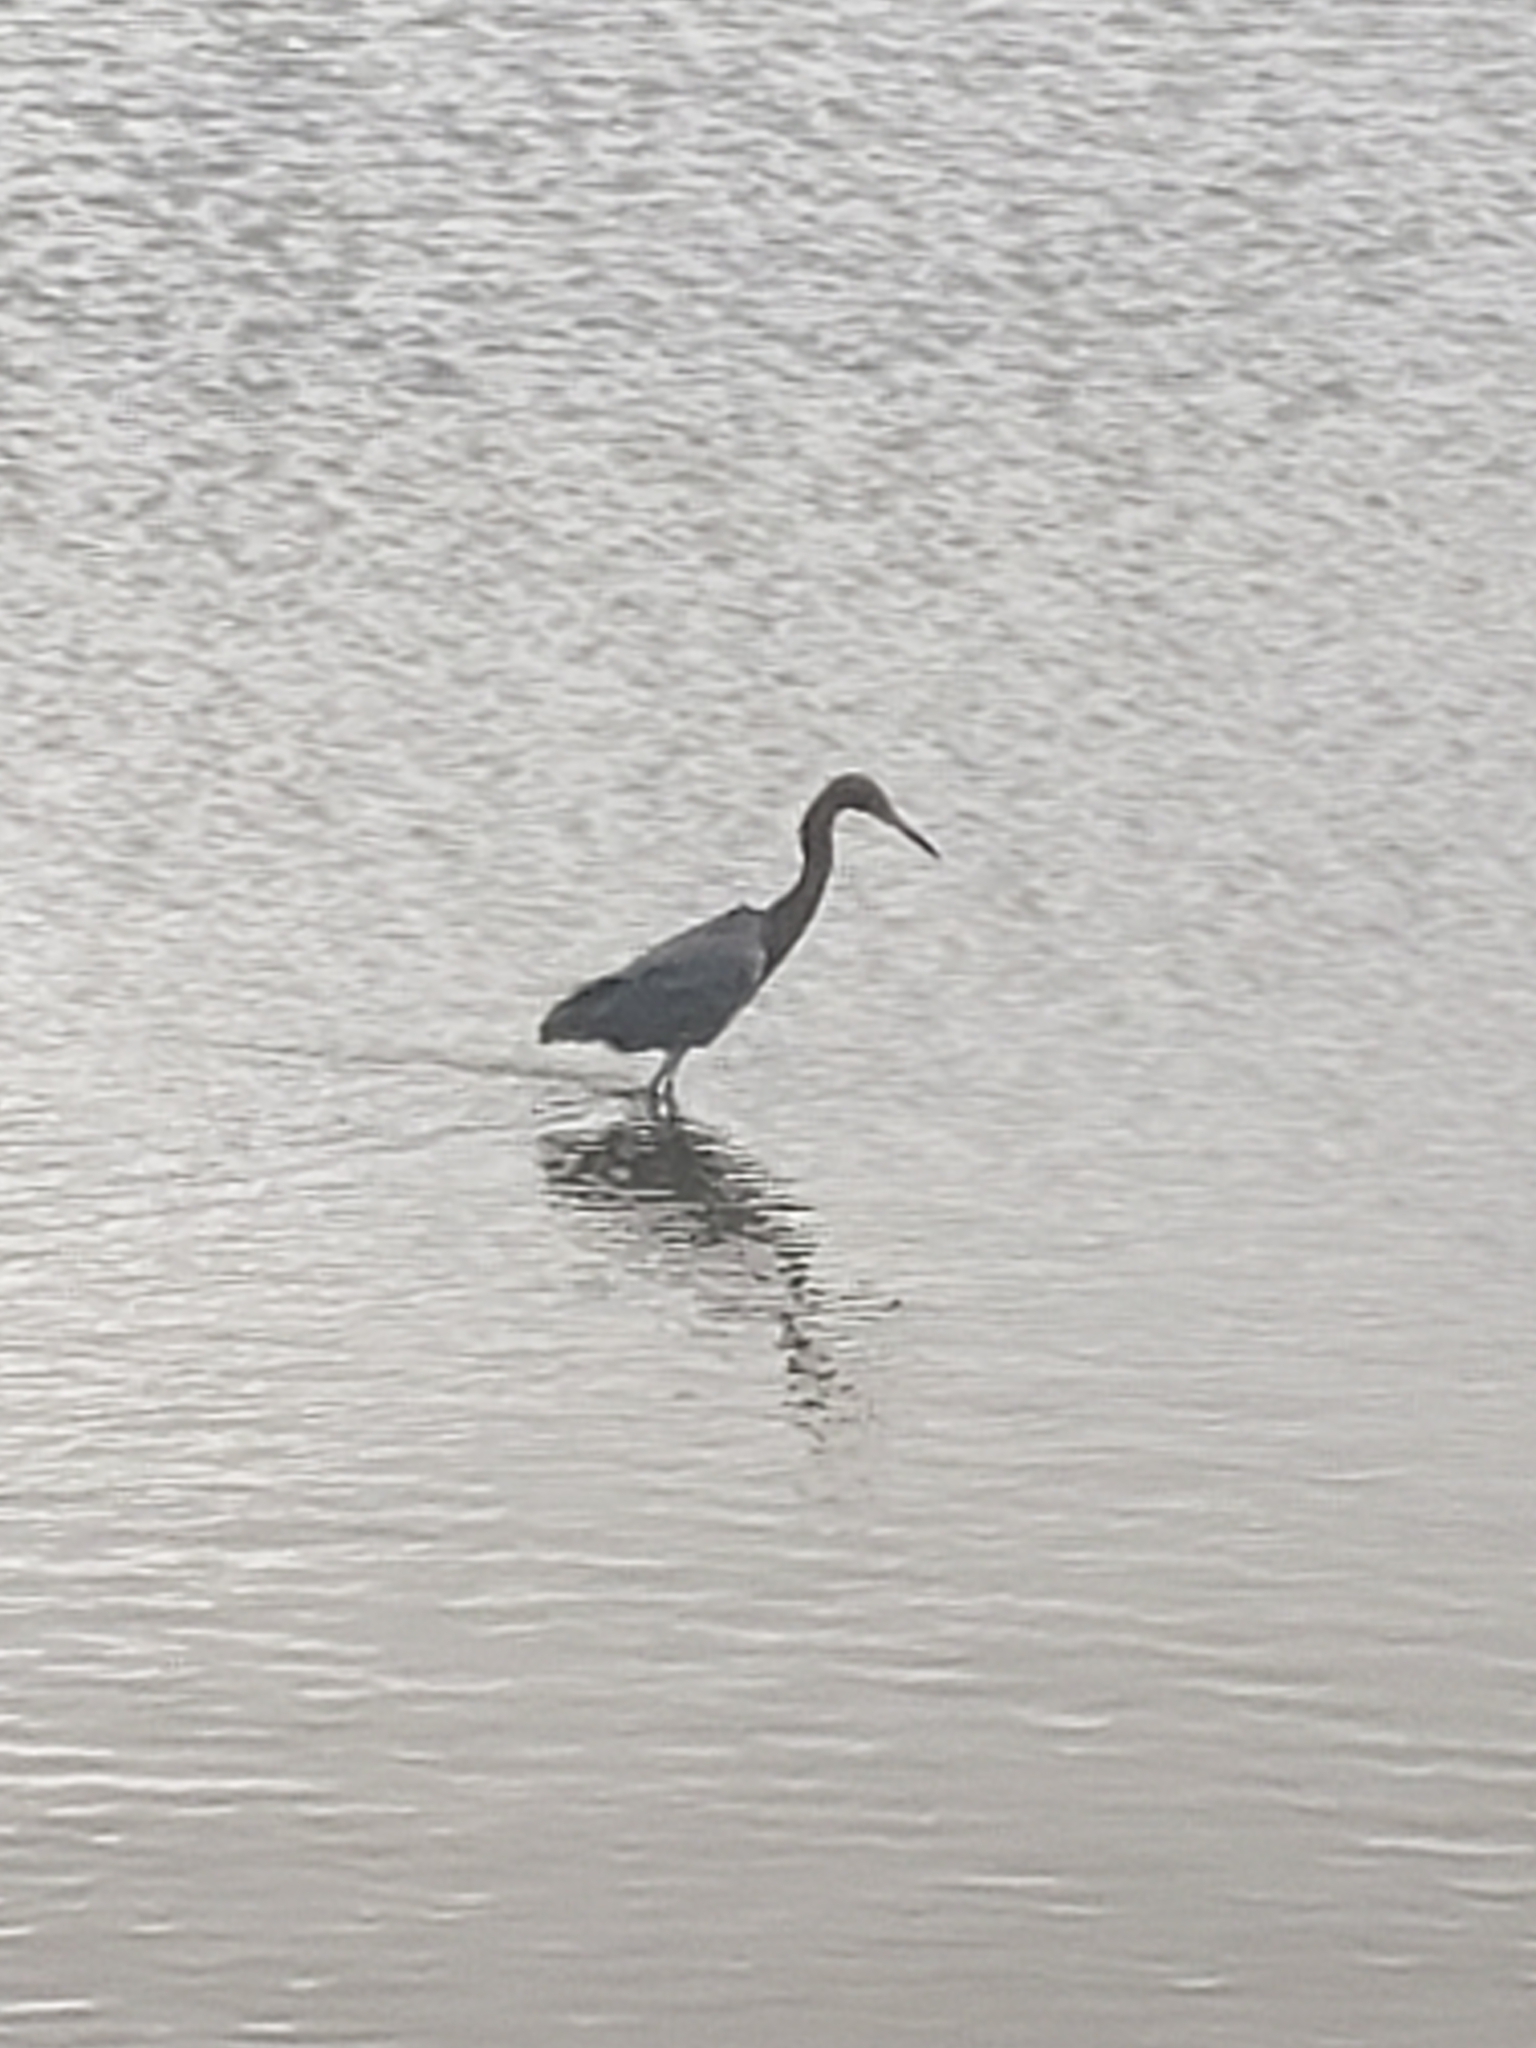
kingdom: Animalia
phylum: Chordata
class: Aves
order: Pelecaniformes
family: Ardeidae
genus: Egretta
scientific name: Egretta rufescens
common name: Reddish egret
